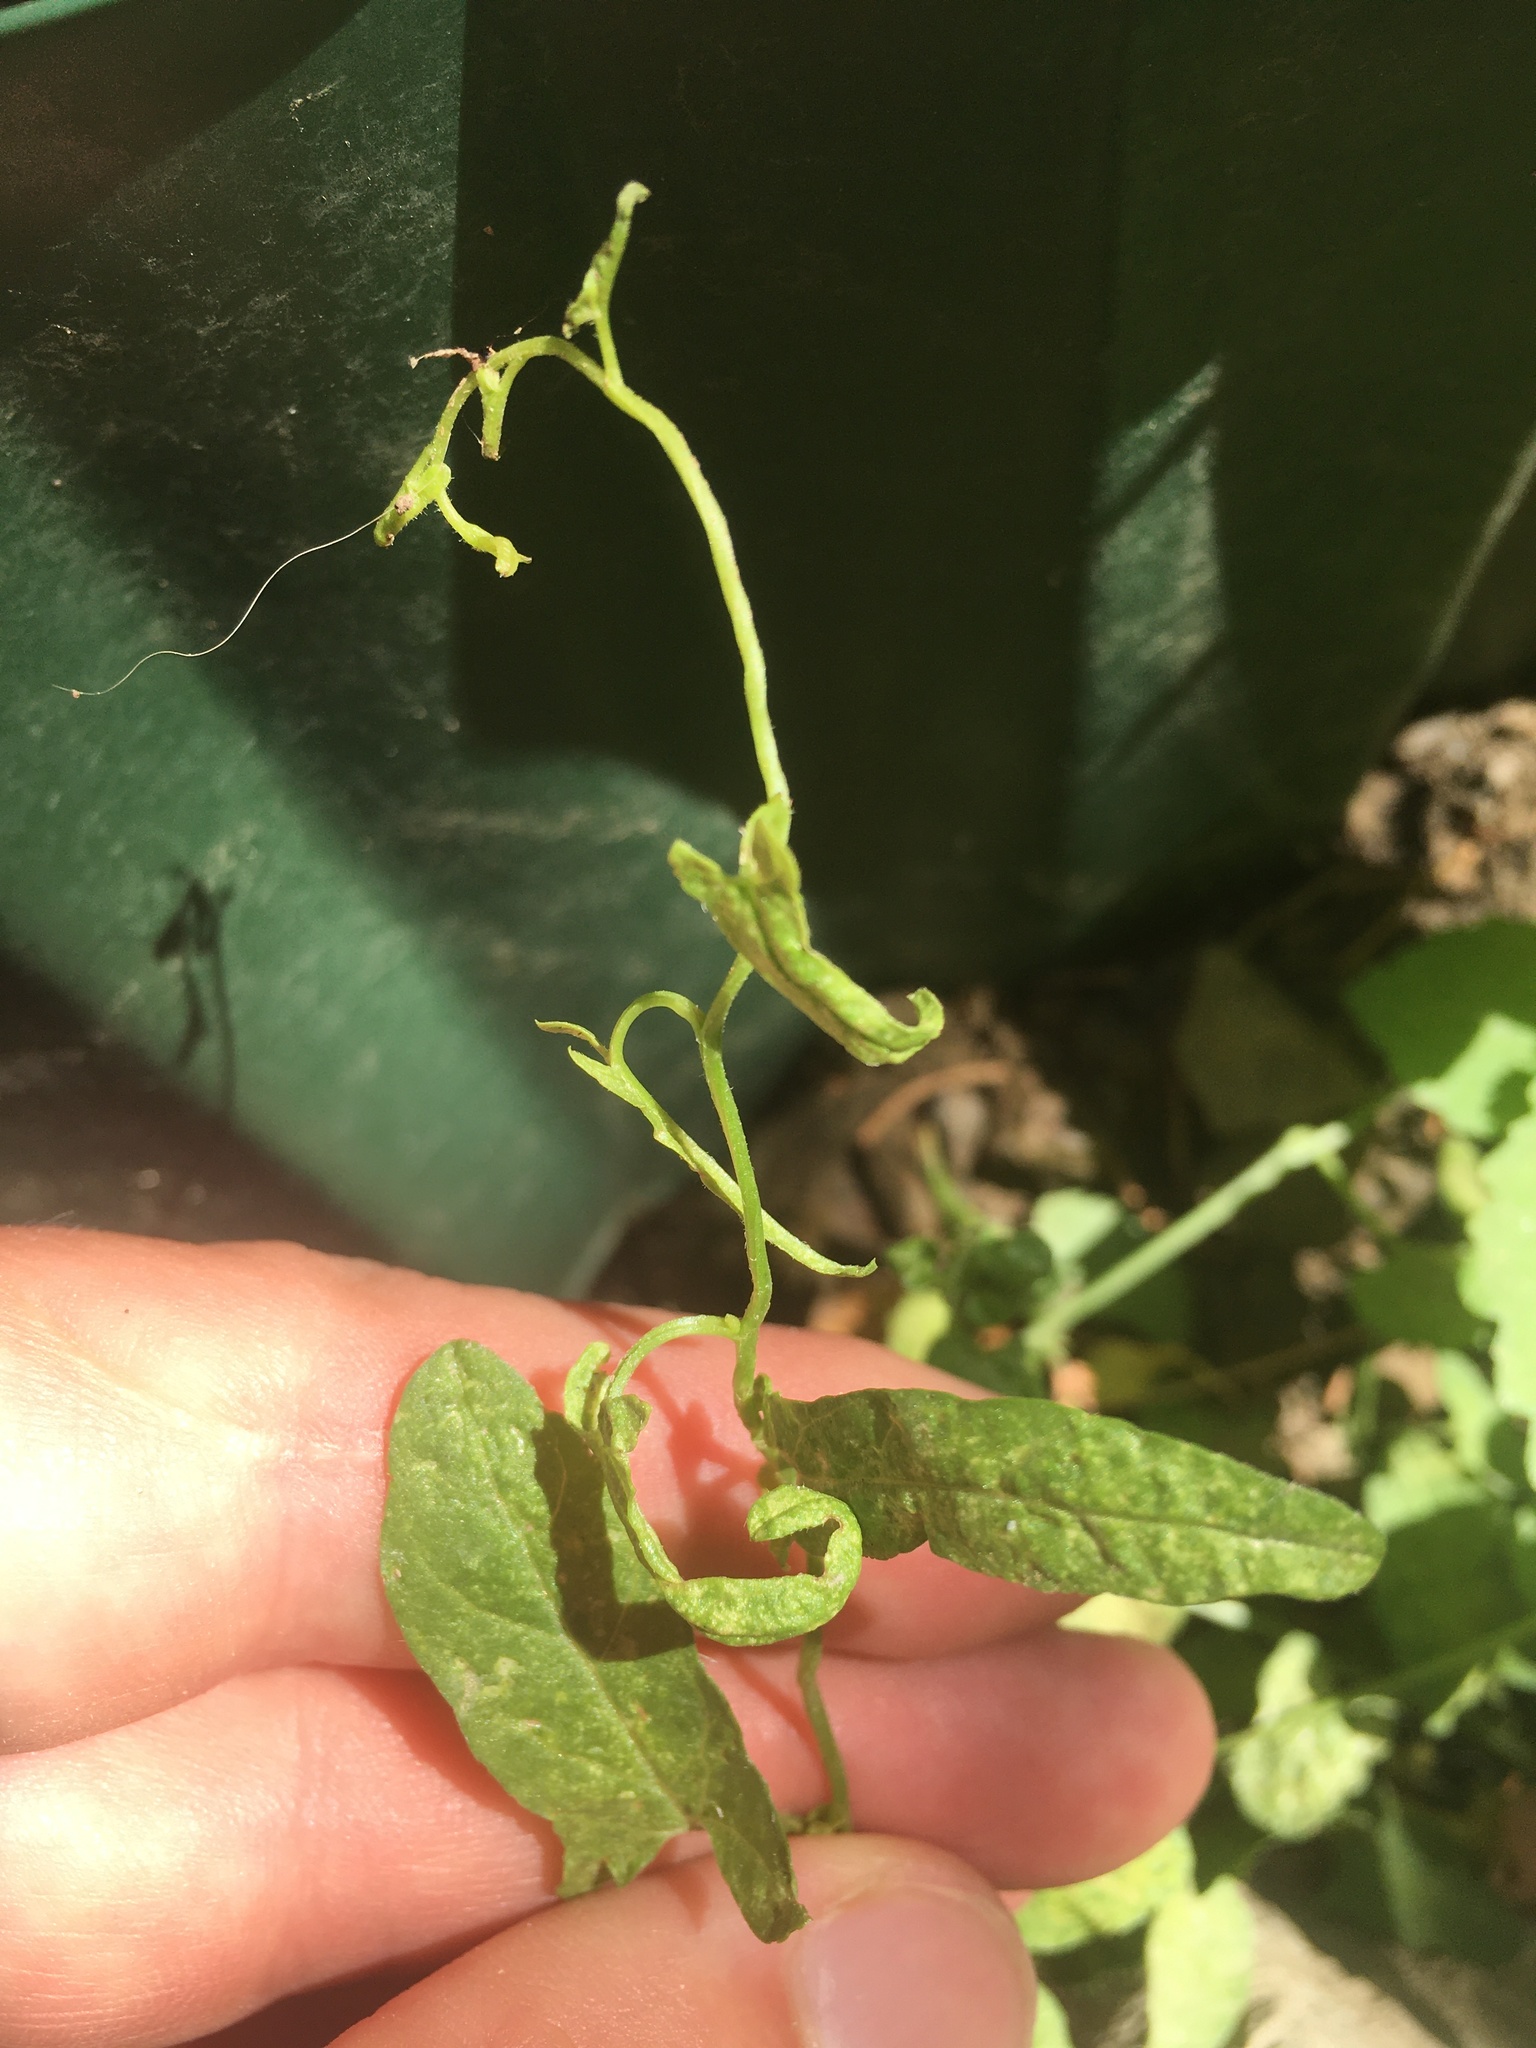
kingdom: Plantae
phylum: Tracheophyta
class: Magnoliopsida
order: Solanales
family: Convolvulaceae
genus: Convolvulus
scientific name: Convolvulus arvensis
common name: Field bindweed
